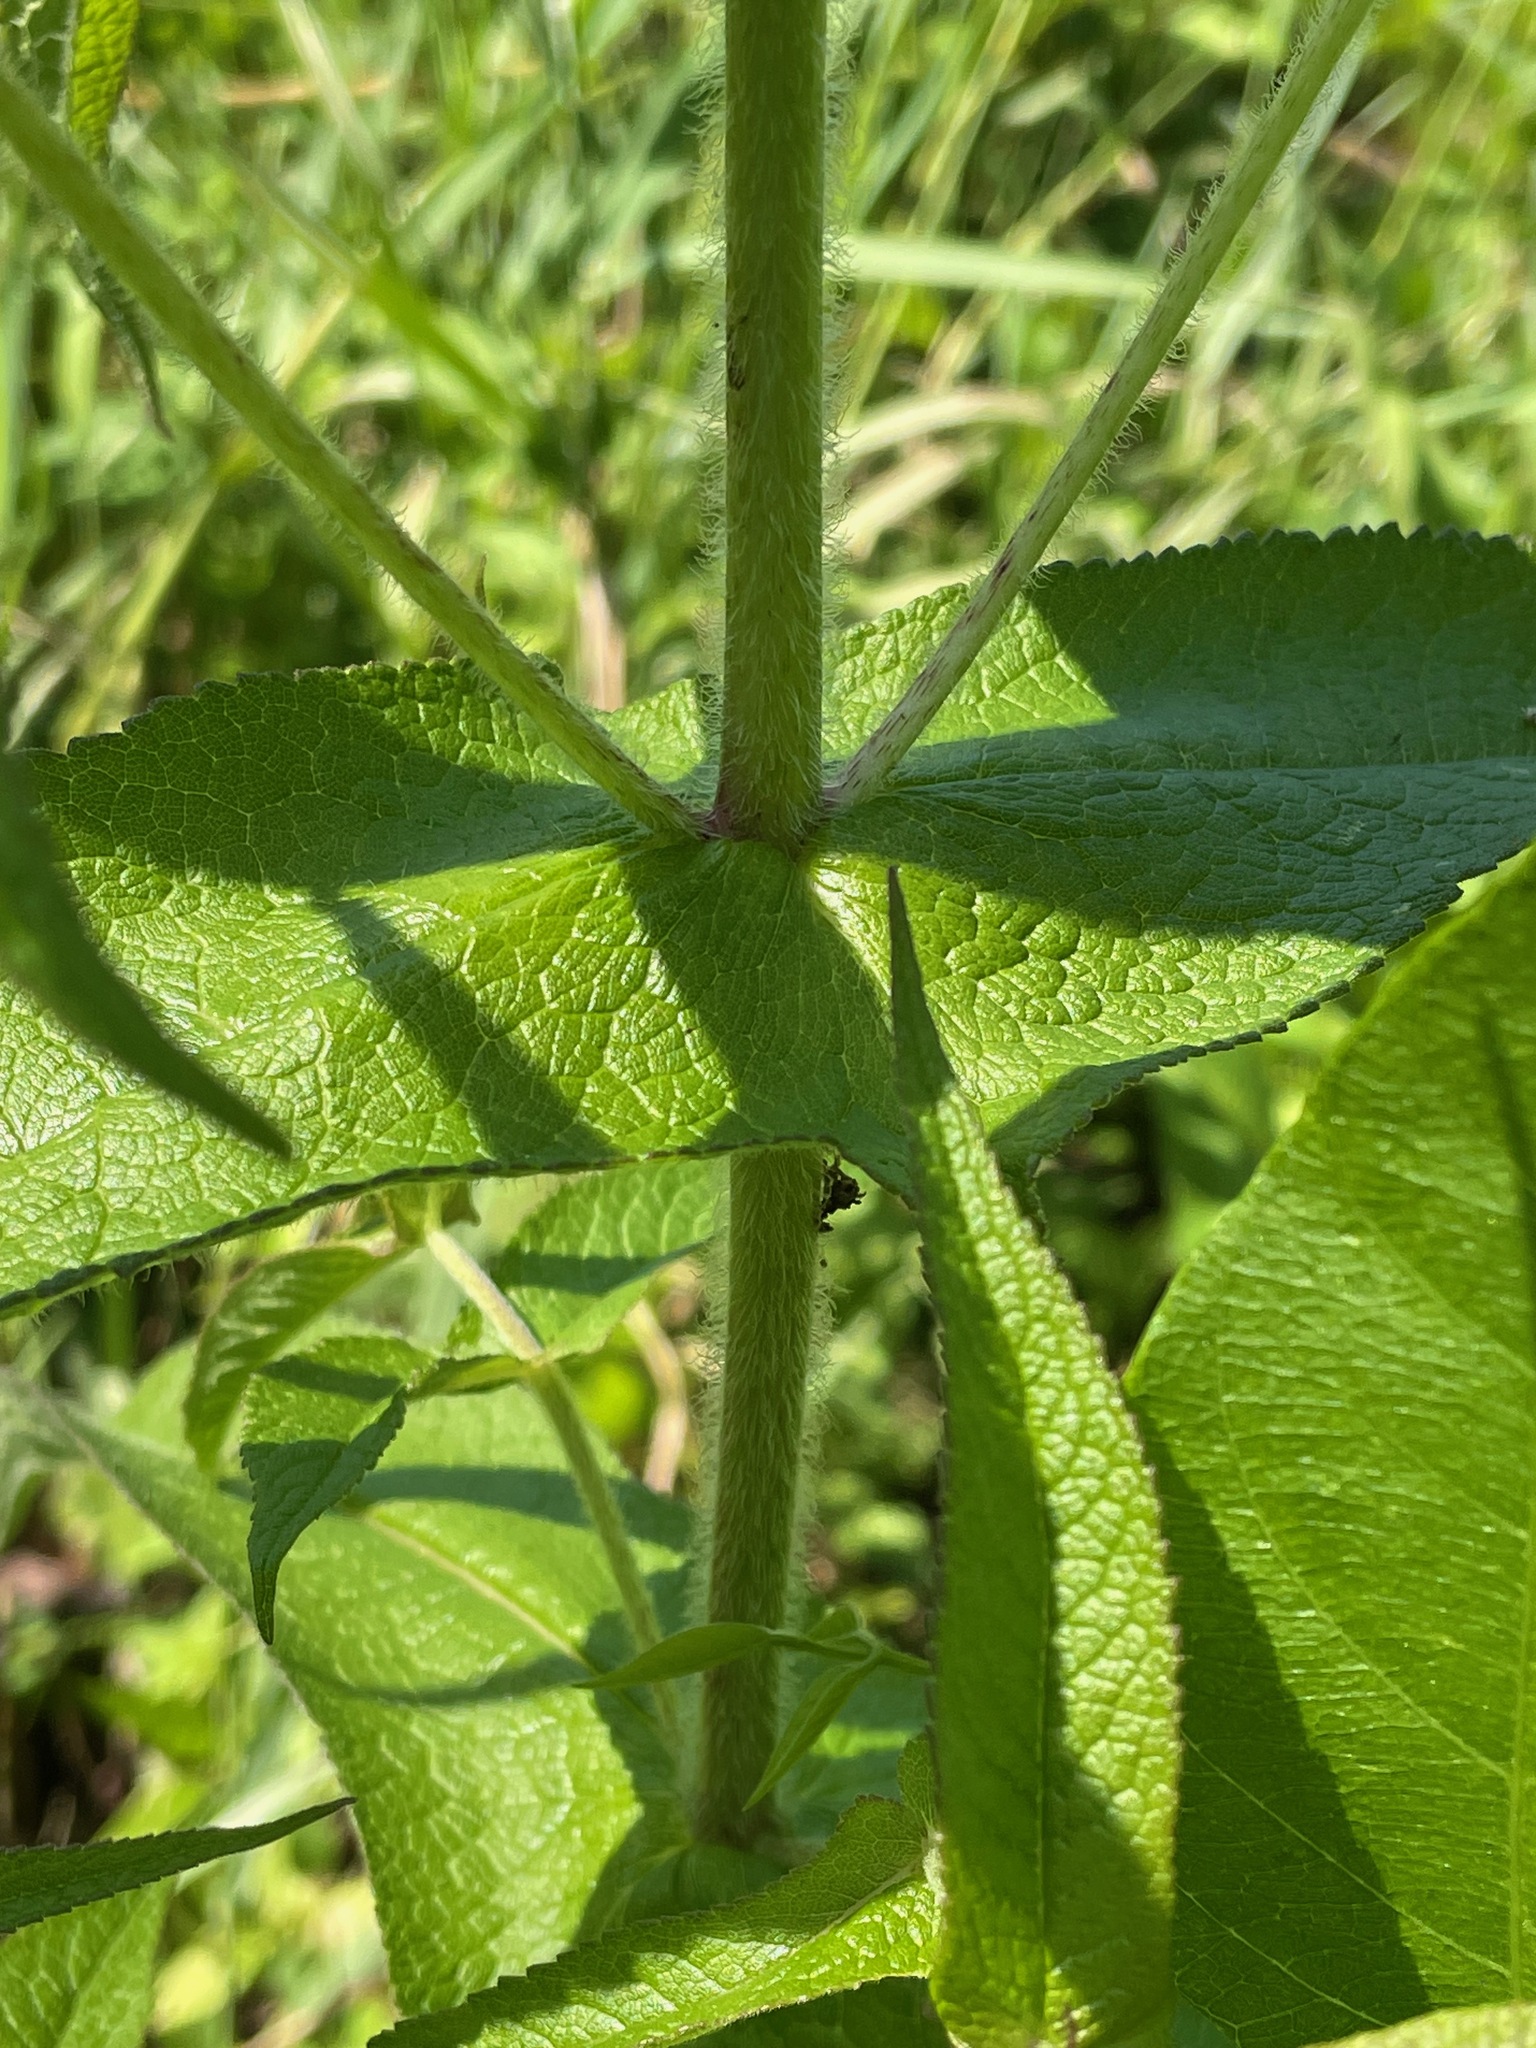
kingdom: Plantae
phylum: Tracheophyta
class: Magnoliopsida
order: Asterales
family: Asteraceae
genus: Eupatorium
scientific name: Eupatorium perfoliatum
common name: Boneset
